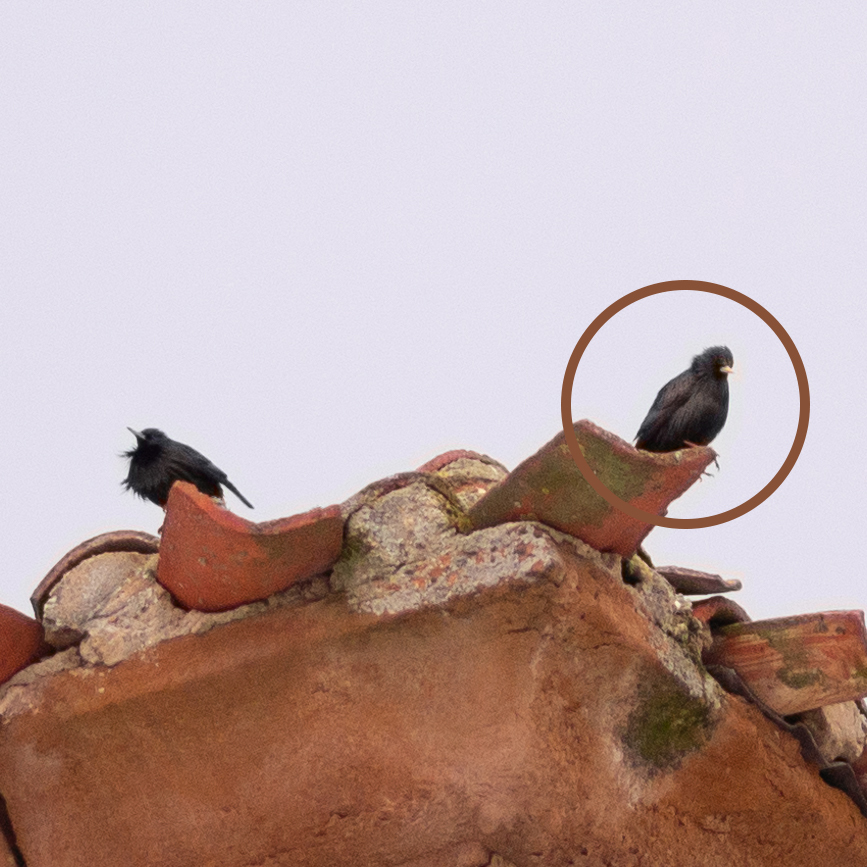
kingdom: Animalia
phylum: Chordata
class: Aves
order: Passeriformes
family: Sturnidae
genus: Sturnus
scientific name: Sturnus unicolor
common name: Spotless starling
